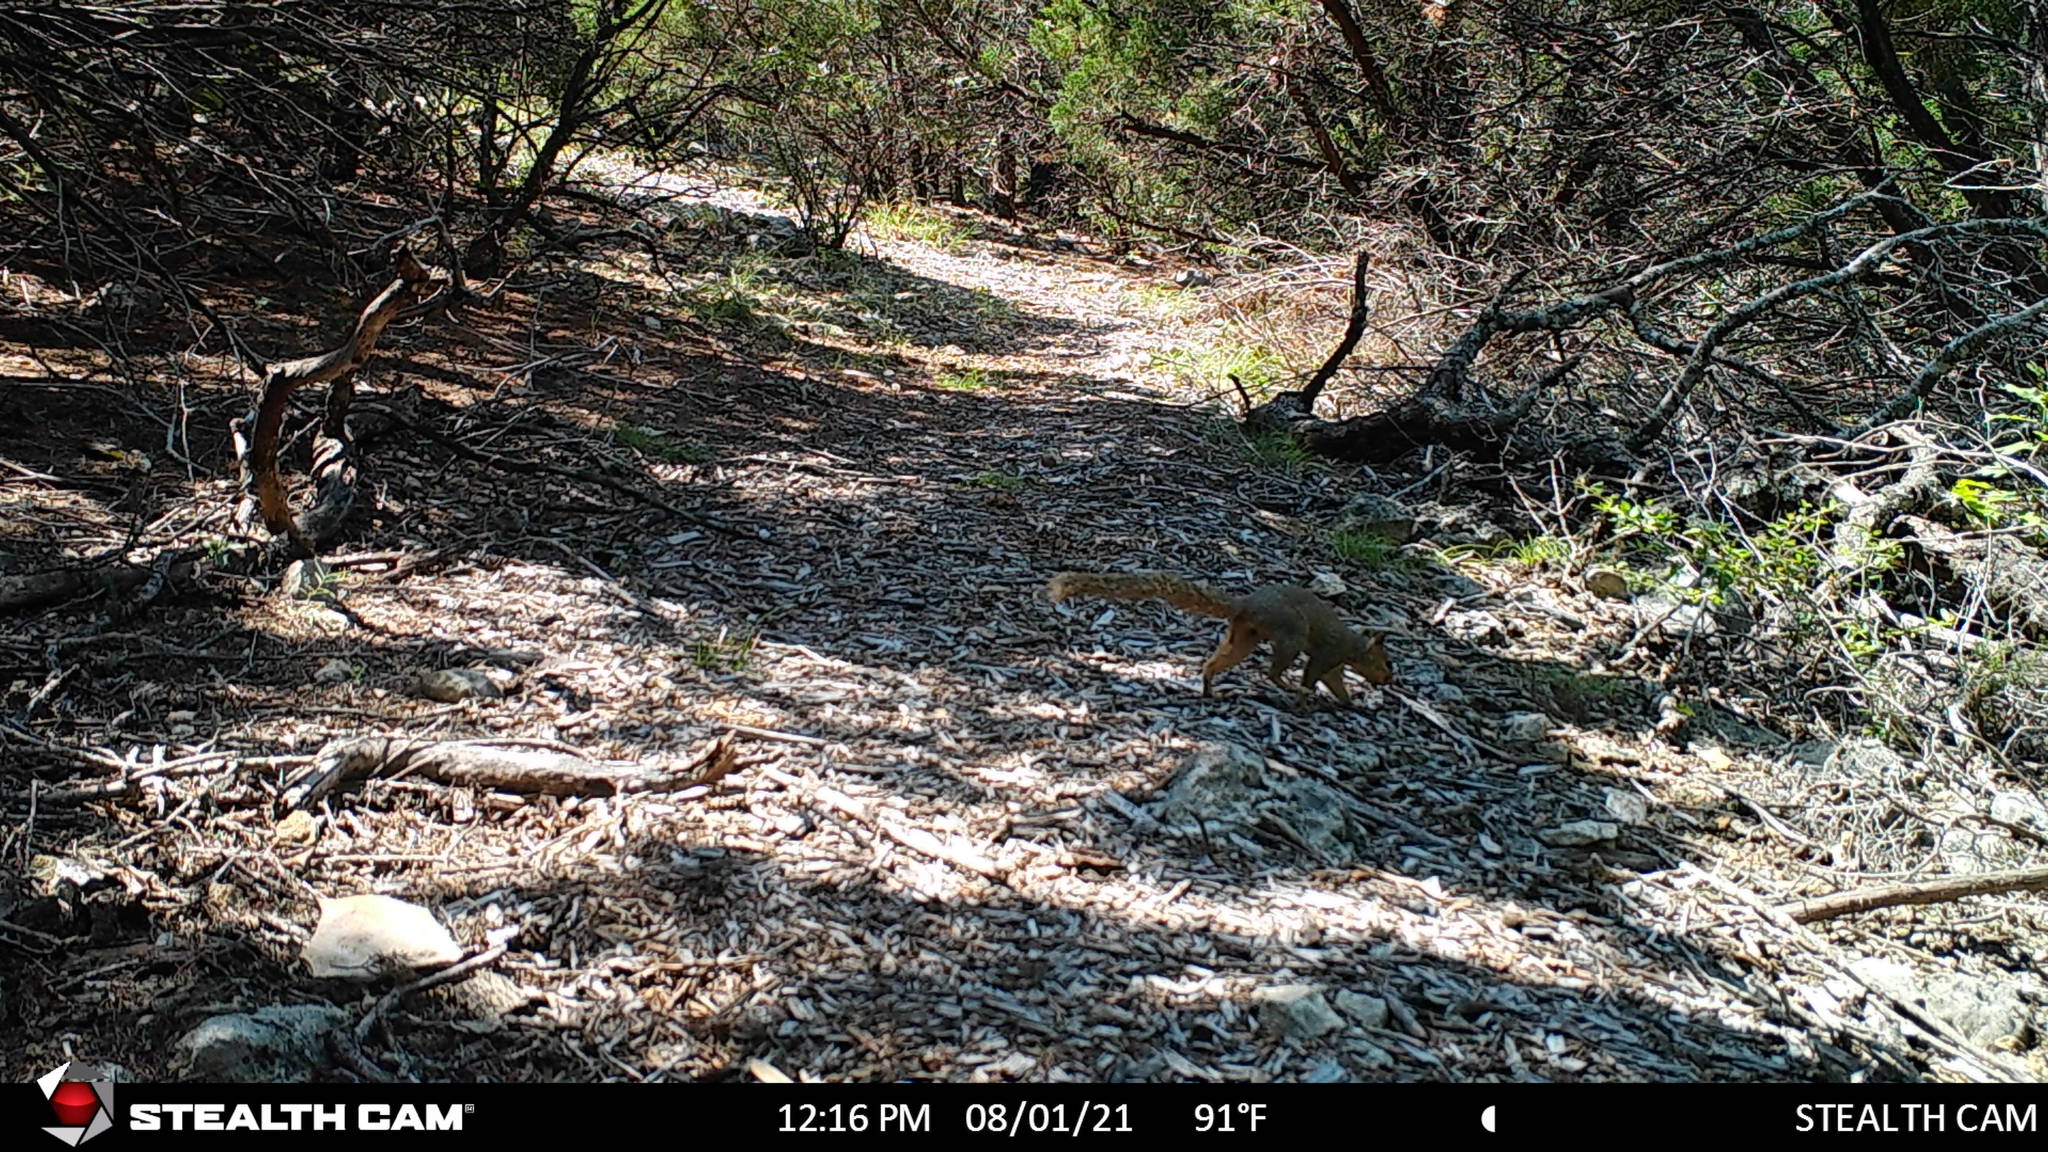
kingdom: Animalia
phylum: Chordata
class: Mammalia
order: Rodentia
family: Sciuridae
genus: Sciurus
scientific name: Sciurus niger
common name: Fox squirrel
